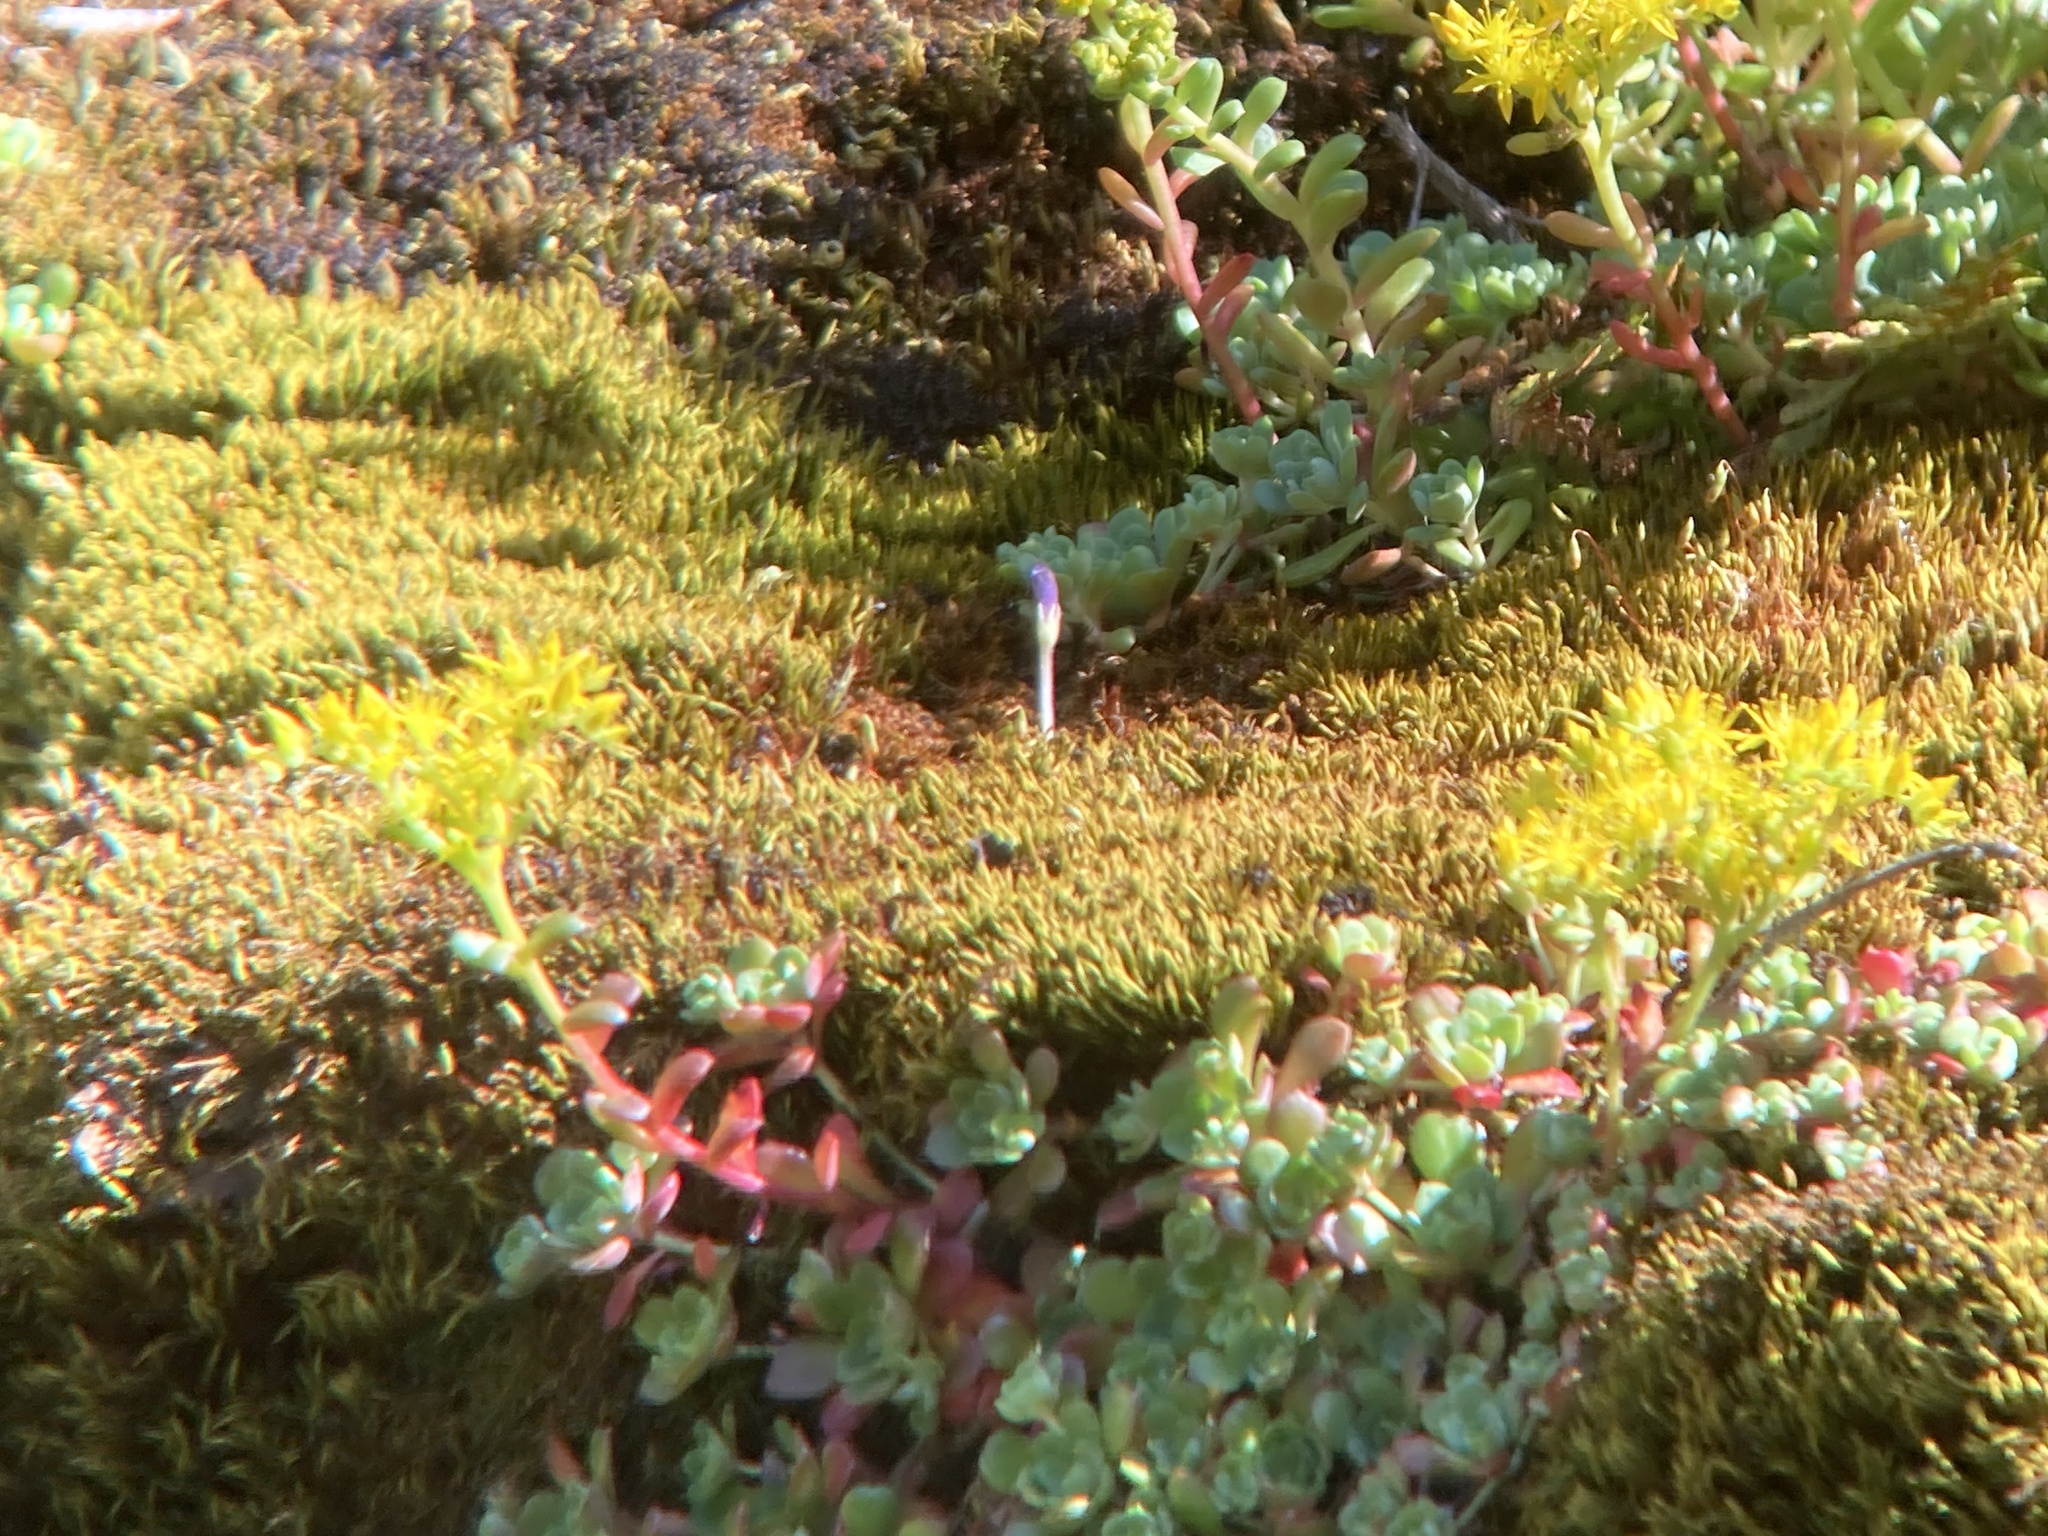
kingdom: Plantae
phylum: Tracheophyta
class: Magnoliopsida
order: Lamiales
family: Orobanchaceae
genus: Aphyllon
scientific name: Aphyllon uniflorum
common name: One-flowered broomrape
